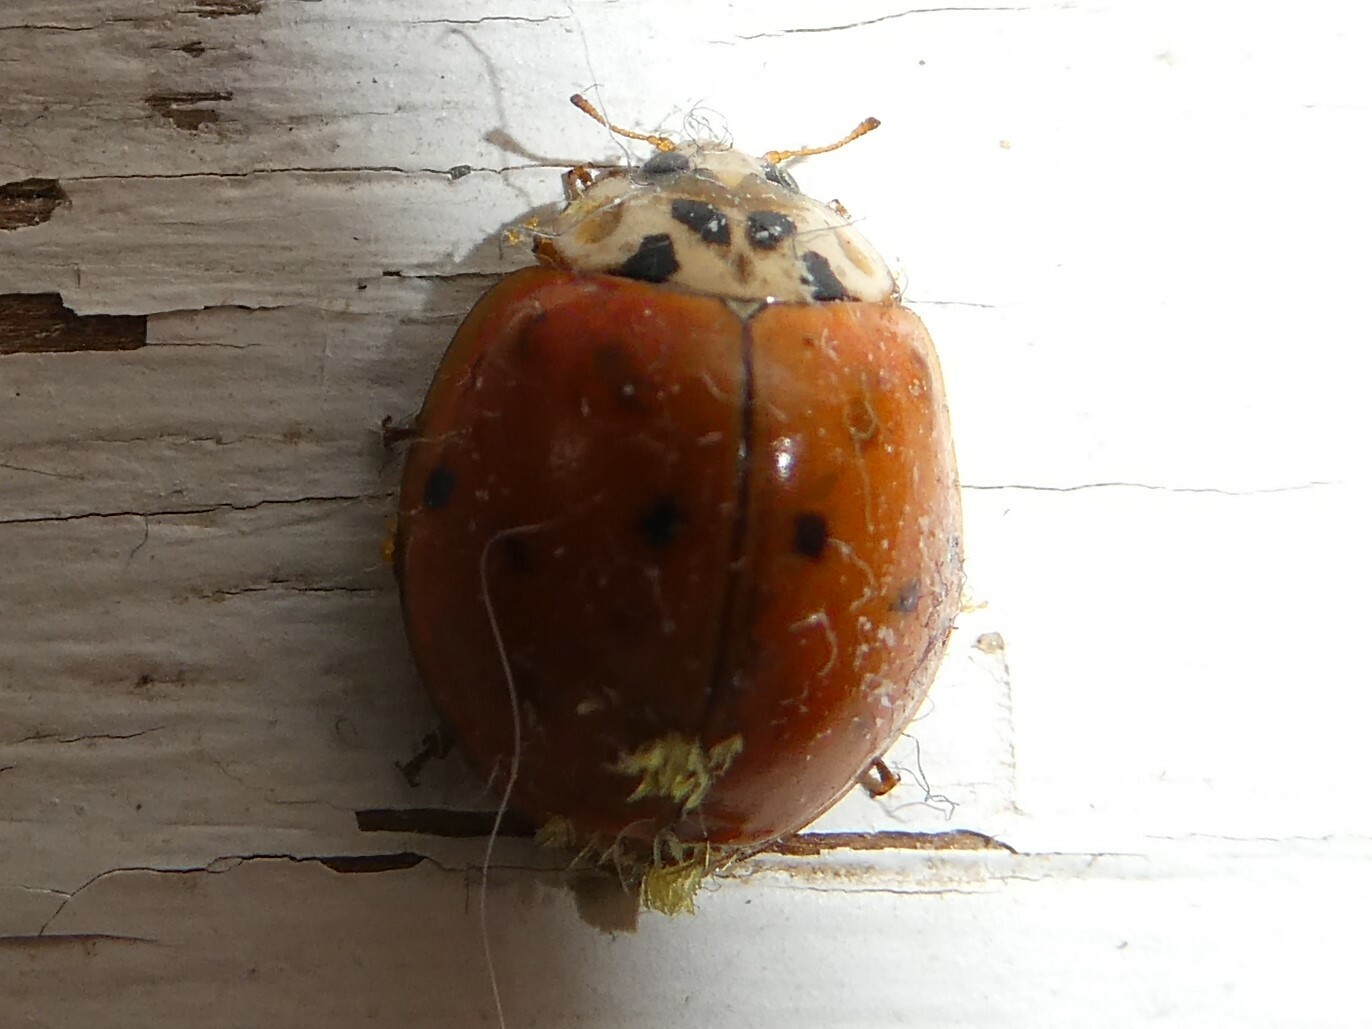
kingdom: Fungi
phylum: Ascomycota
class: Laboulbeniomycetes
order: Laboulbeniales
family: Laboulbeniaceae
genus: Hesperomyces
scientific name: Hesperomyces harmoniae
